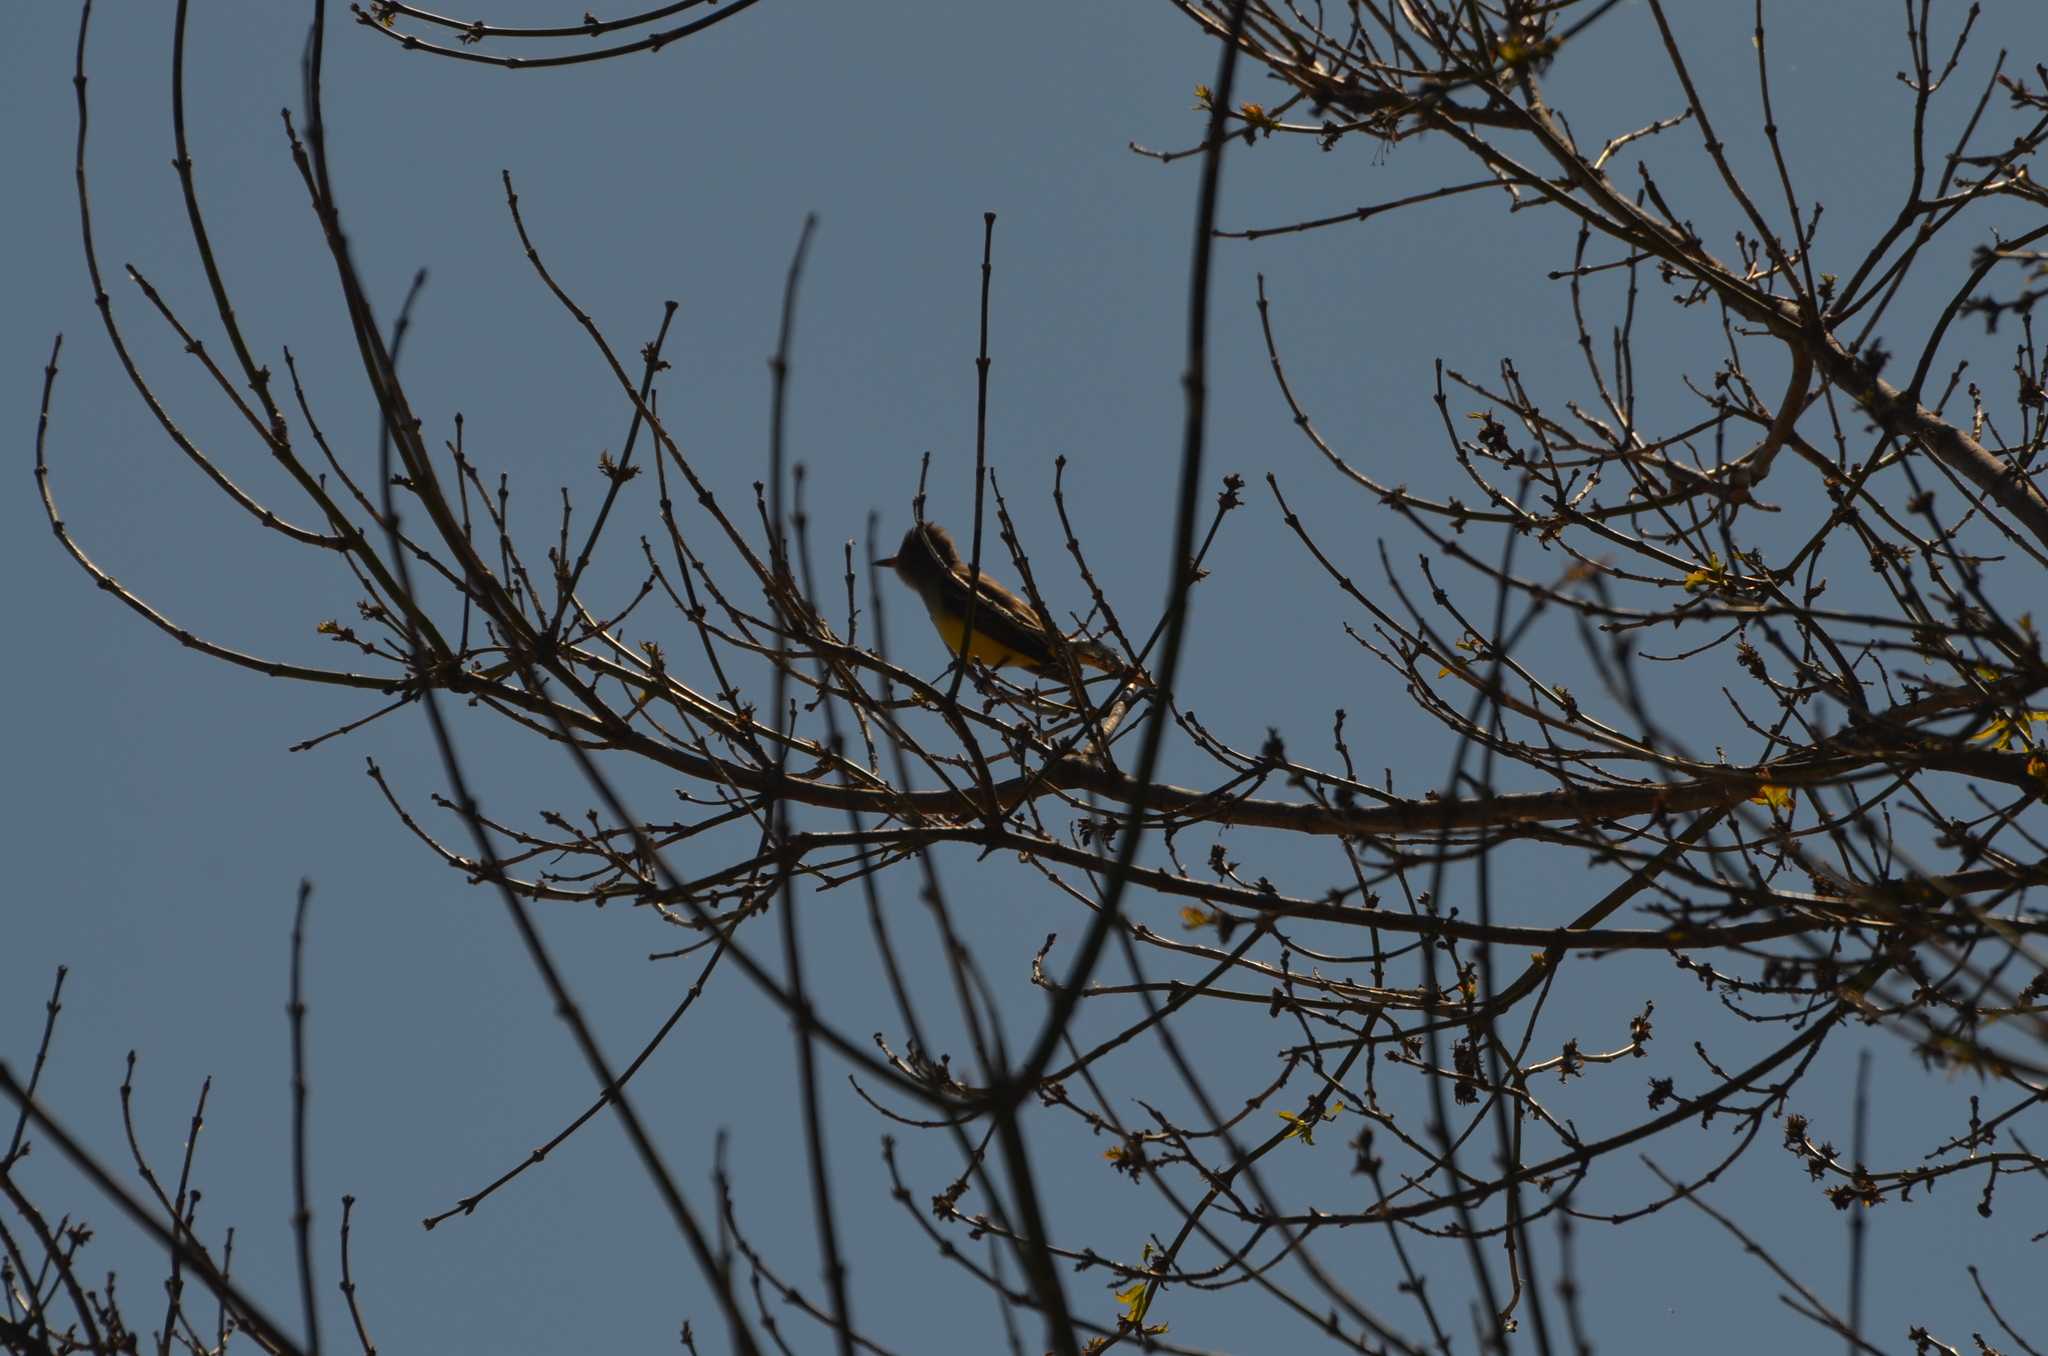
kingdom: Animalia
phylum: Chordata
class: Aves
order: Passeriformes
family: Tyrannidae
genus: Myiarchus
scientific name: Myiarchus crinitus
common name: Great crested flycatcher
